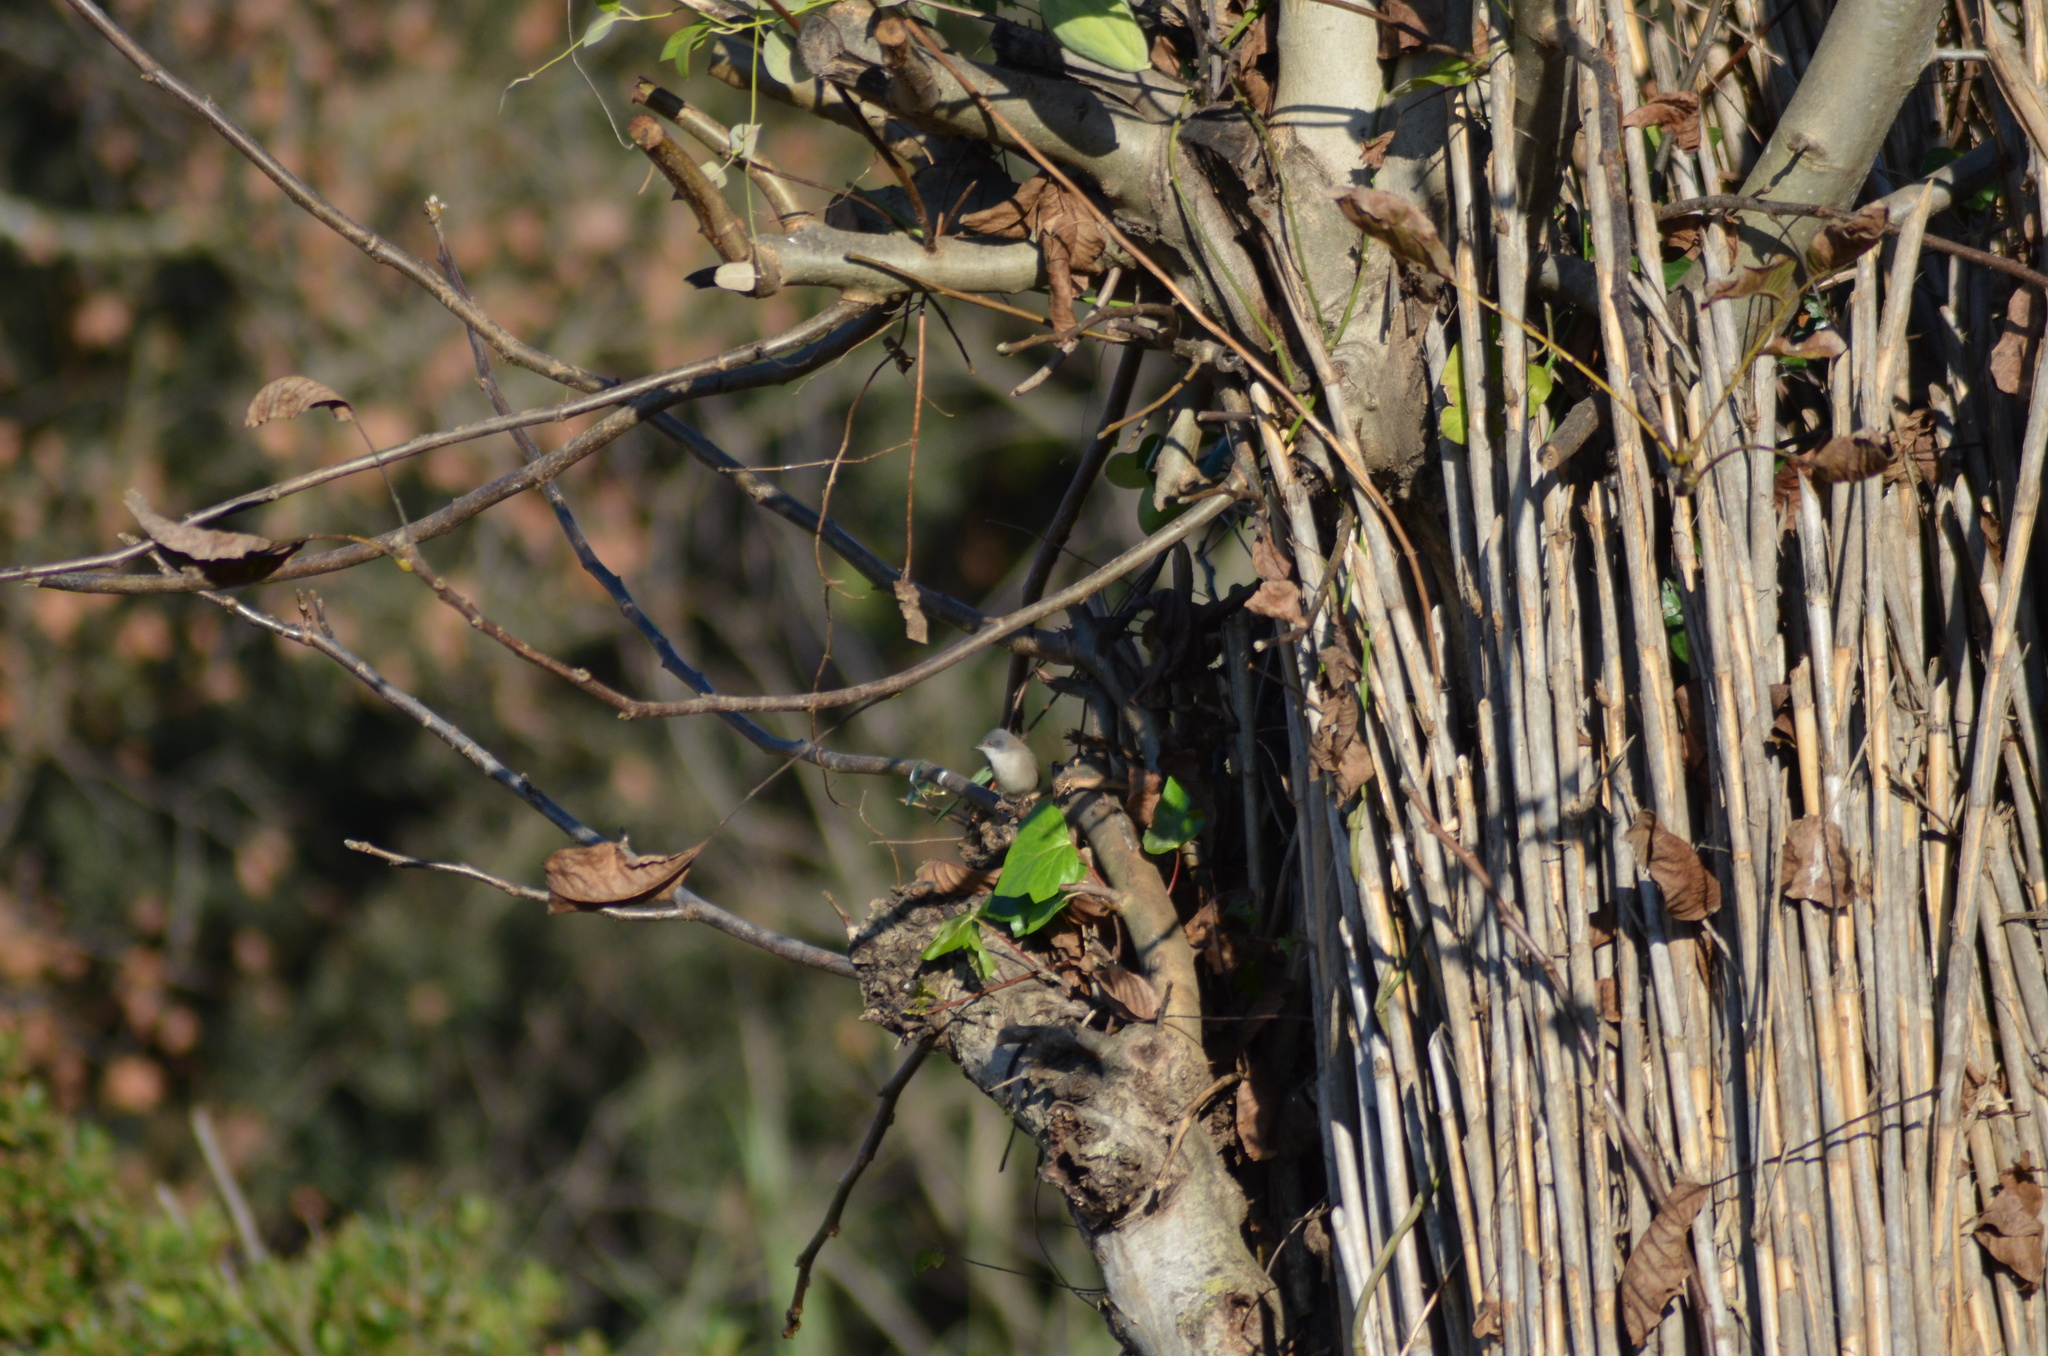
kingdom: Animalia
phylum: Chordata
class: Aves
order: Passeriformes
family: Sylviidae
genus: Curruca
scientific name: Curruca melanocephala
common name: Sardinian warbler
